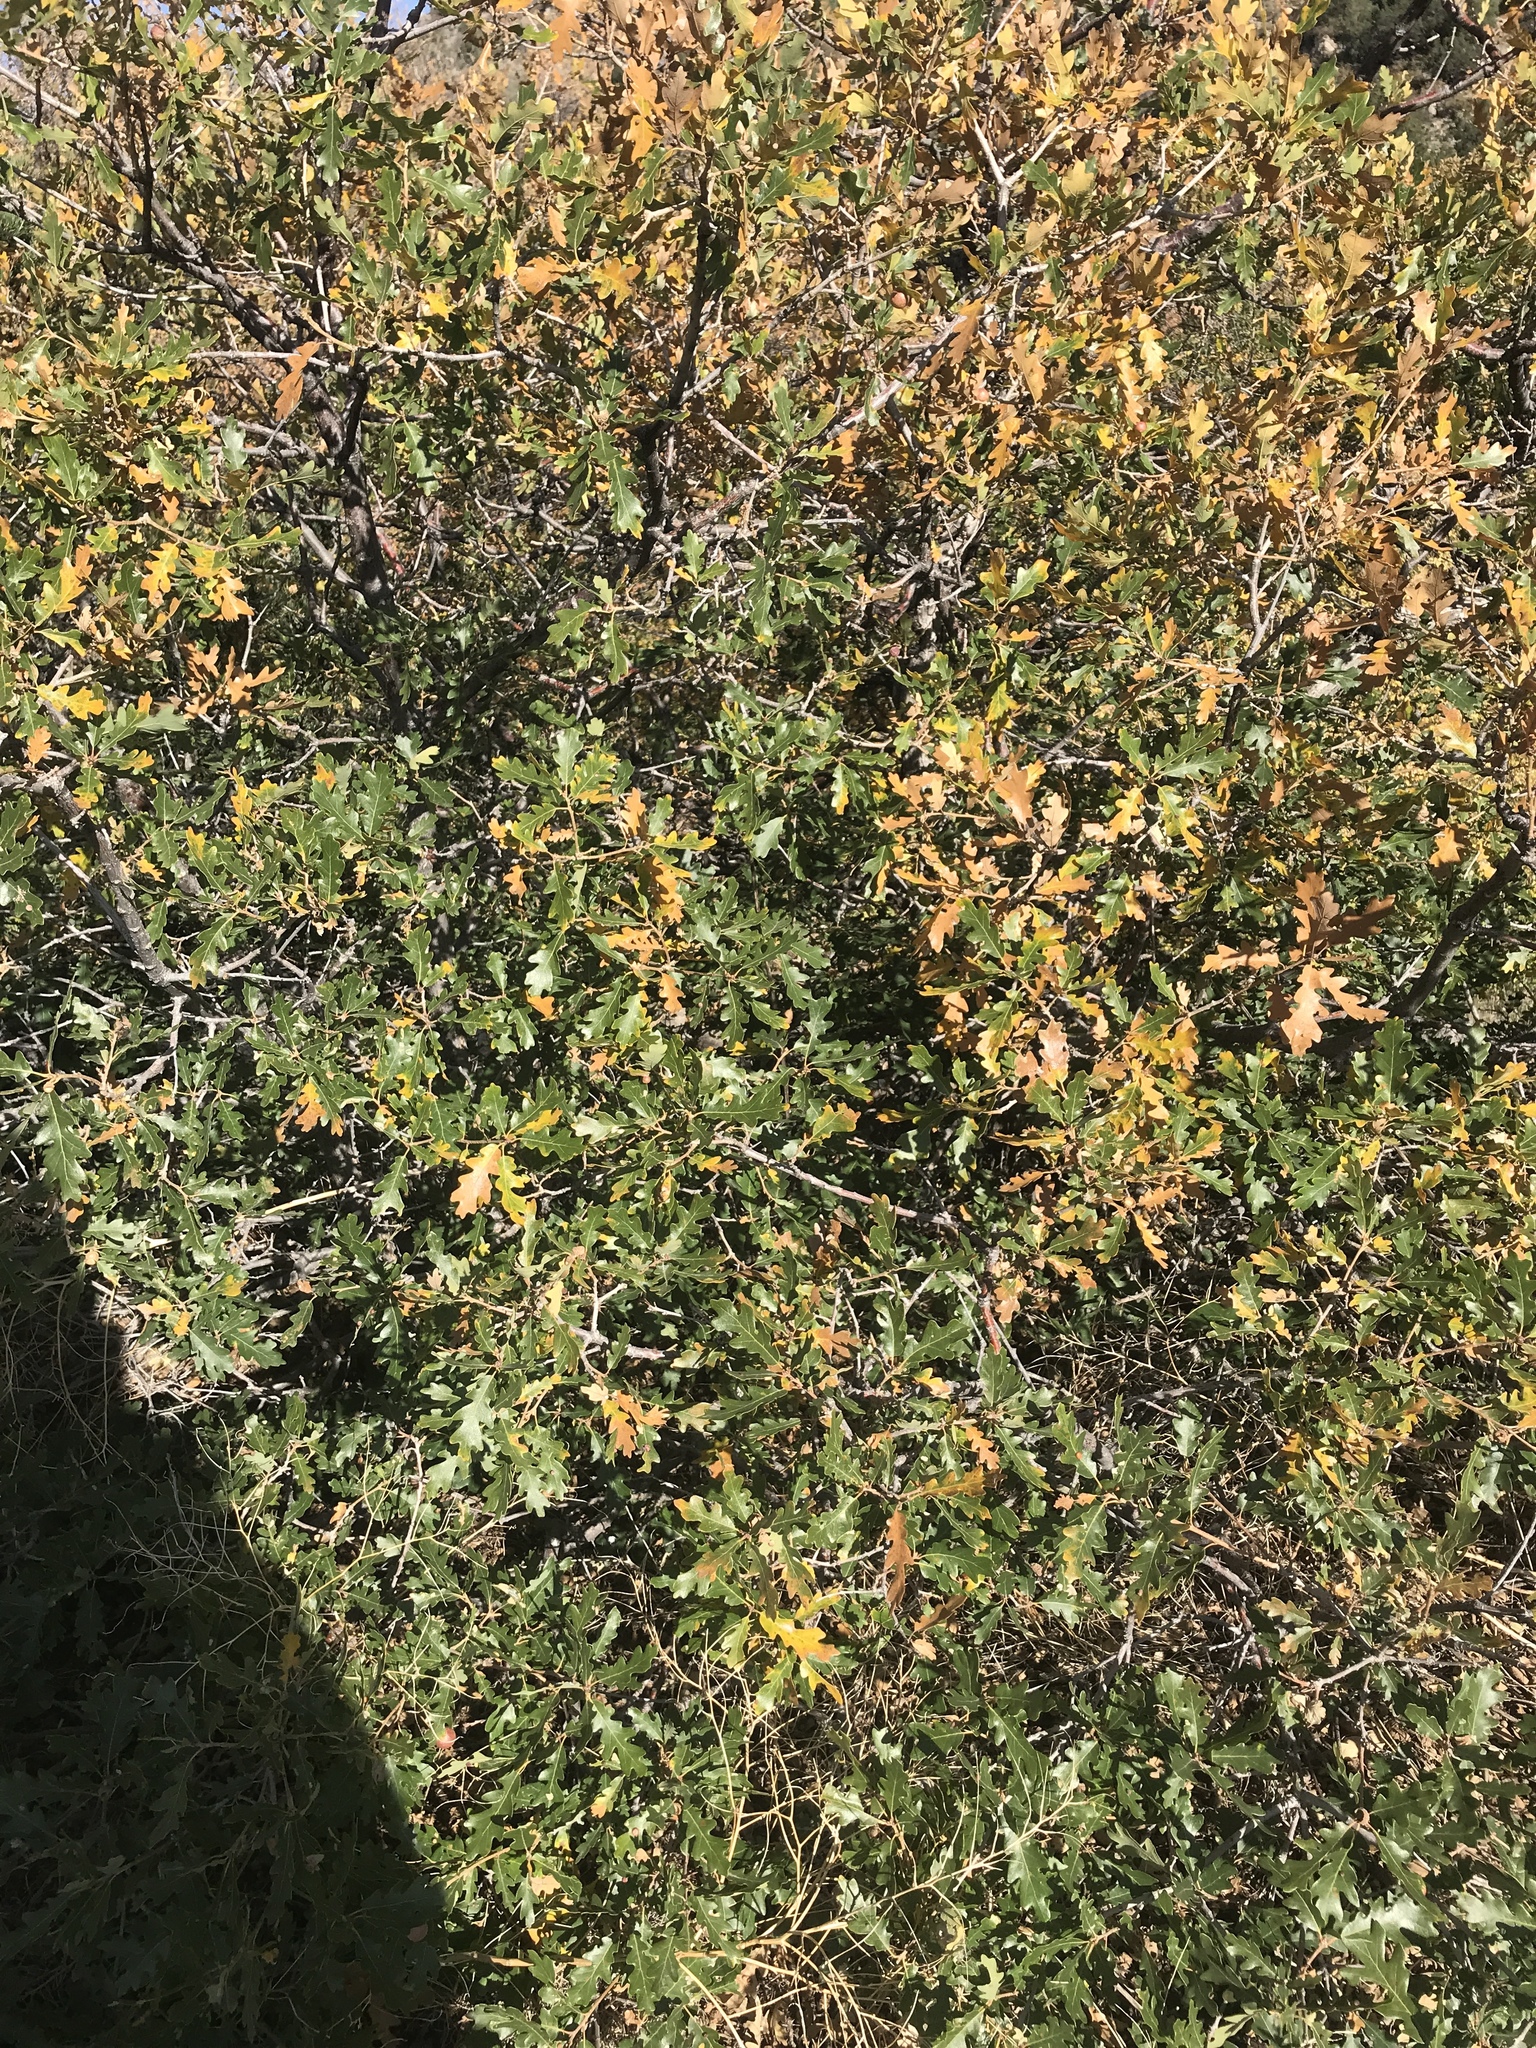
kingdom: Plantae
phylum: Tracheophyta
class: Magnoliopsida
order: Fagales
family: Fagaceae
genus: Quercus
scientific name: Quercus gambelii
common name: Gambel oak
